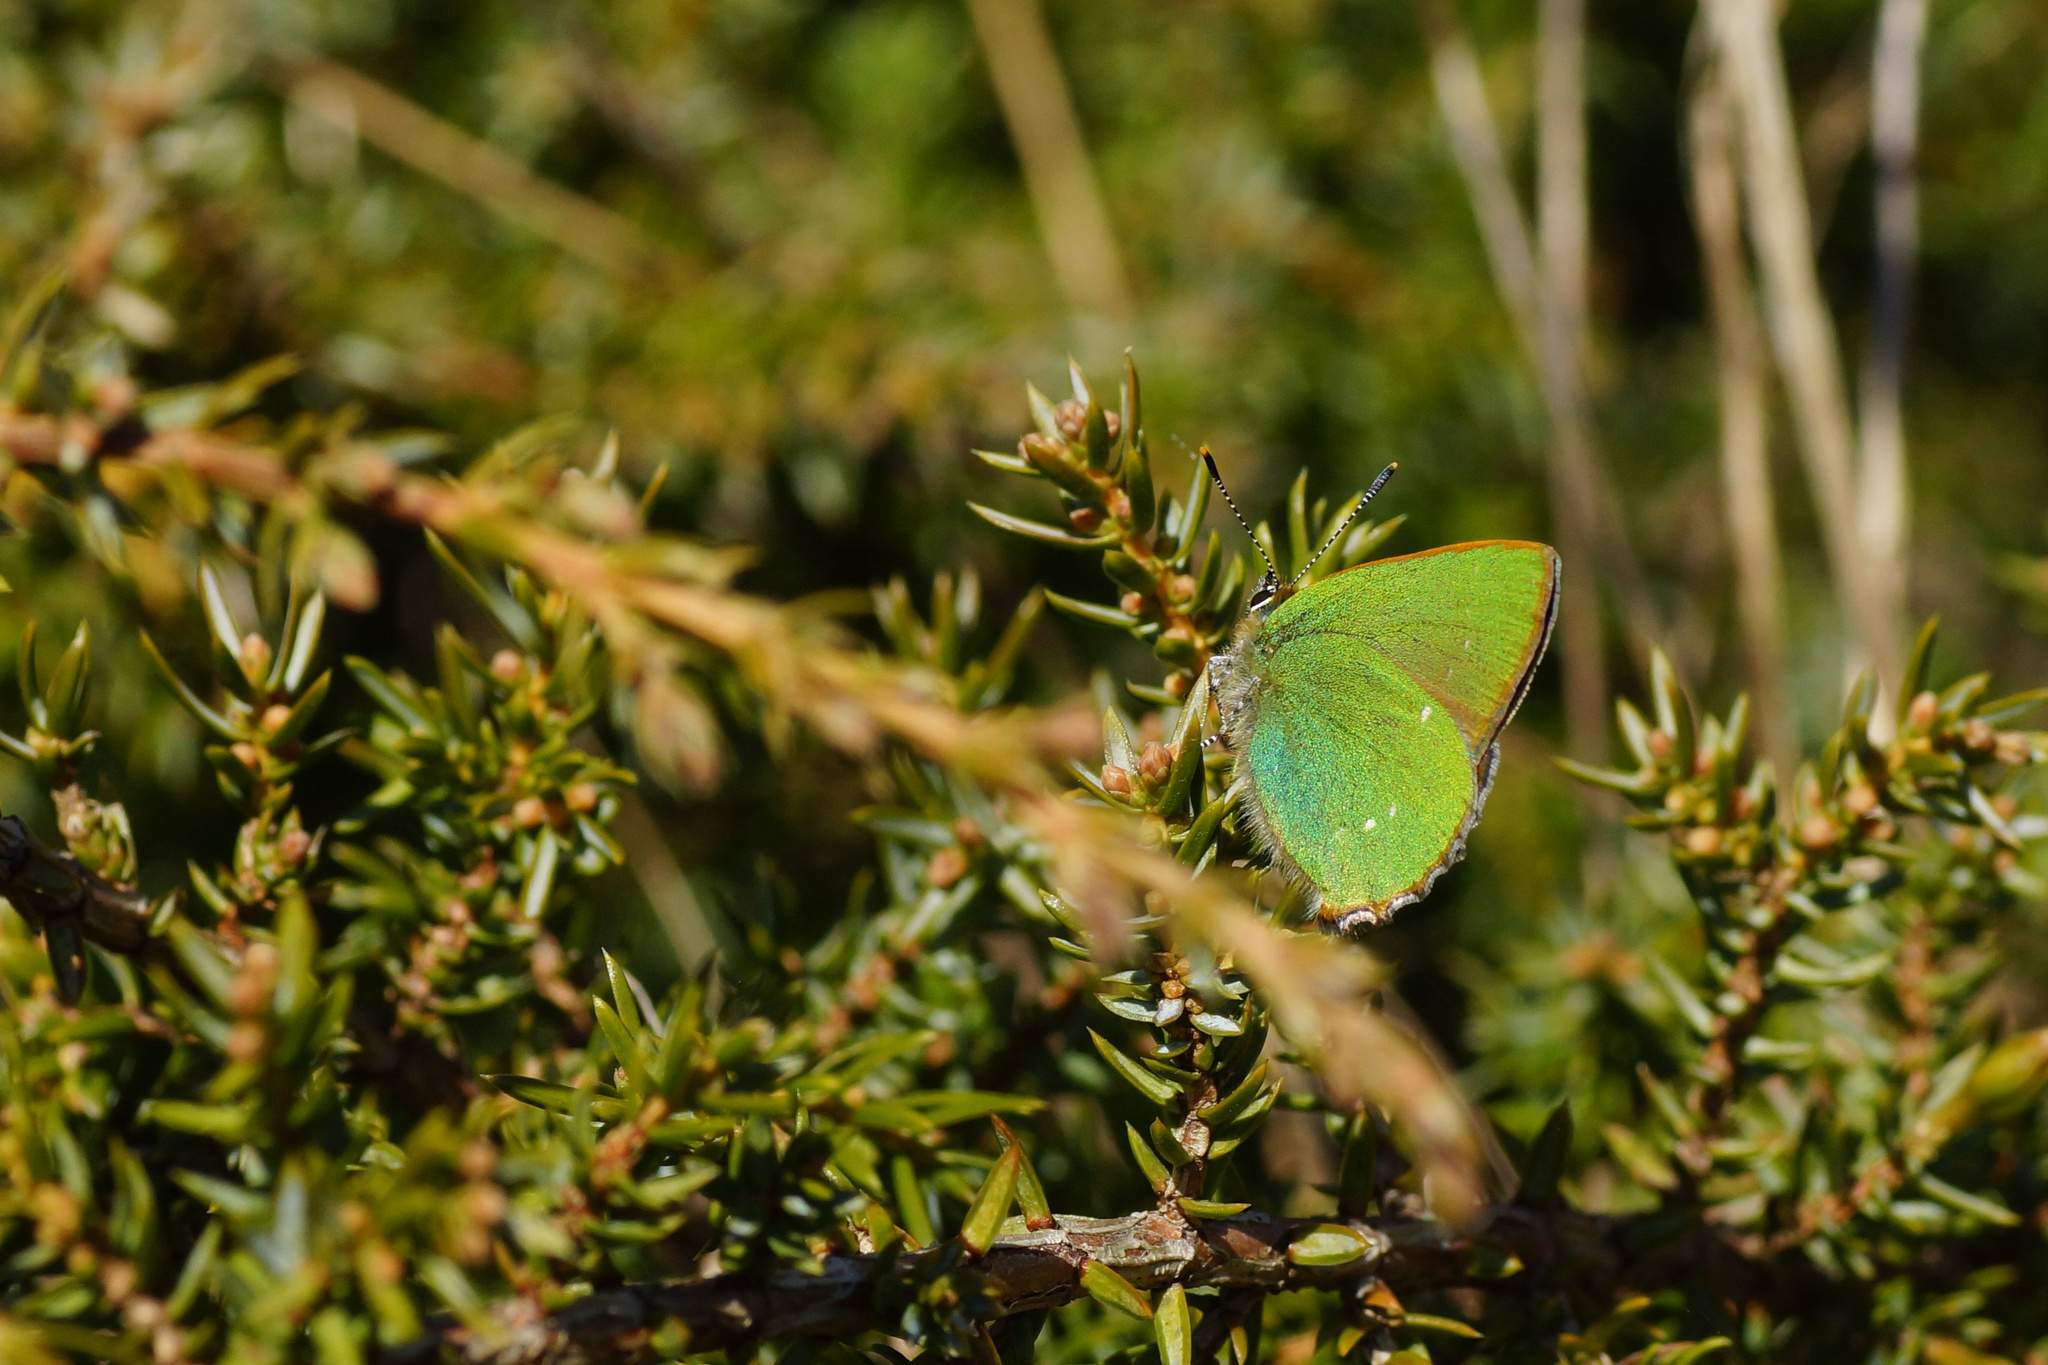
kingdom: Animalia
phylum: Arthropoda
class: Insecta
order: Lepidoptera
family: Lycaenidae
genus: Callophrys
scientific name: Callophrys rubi
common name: Green hairstreak
